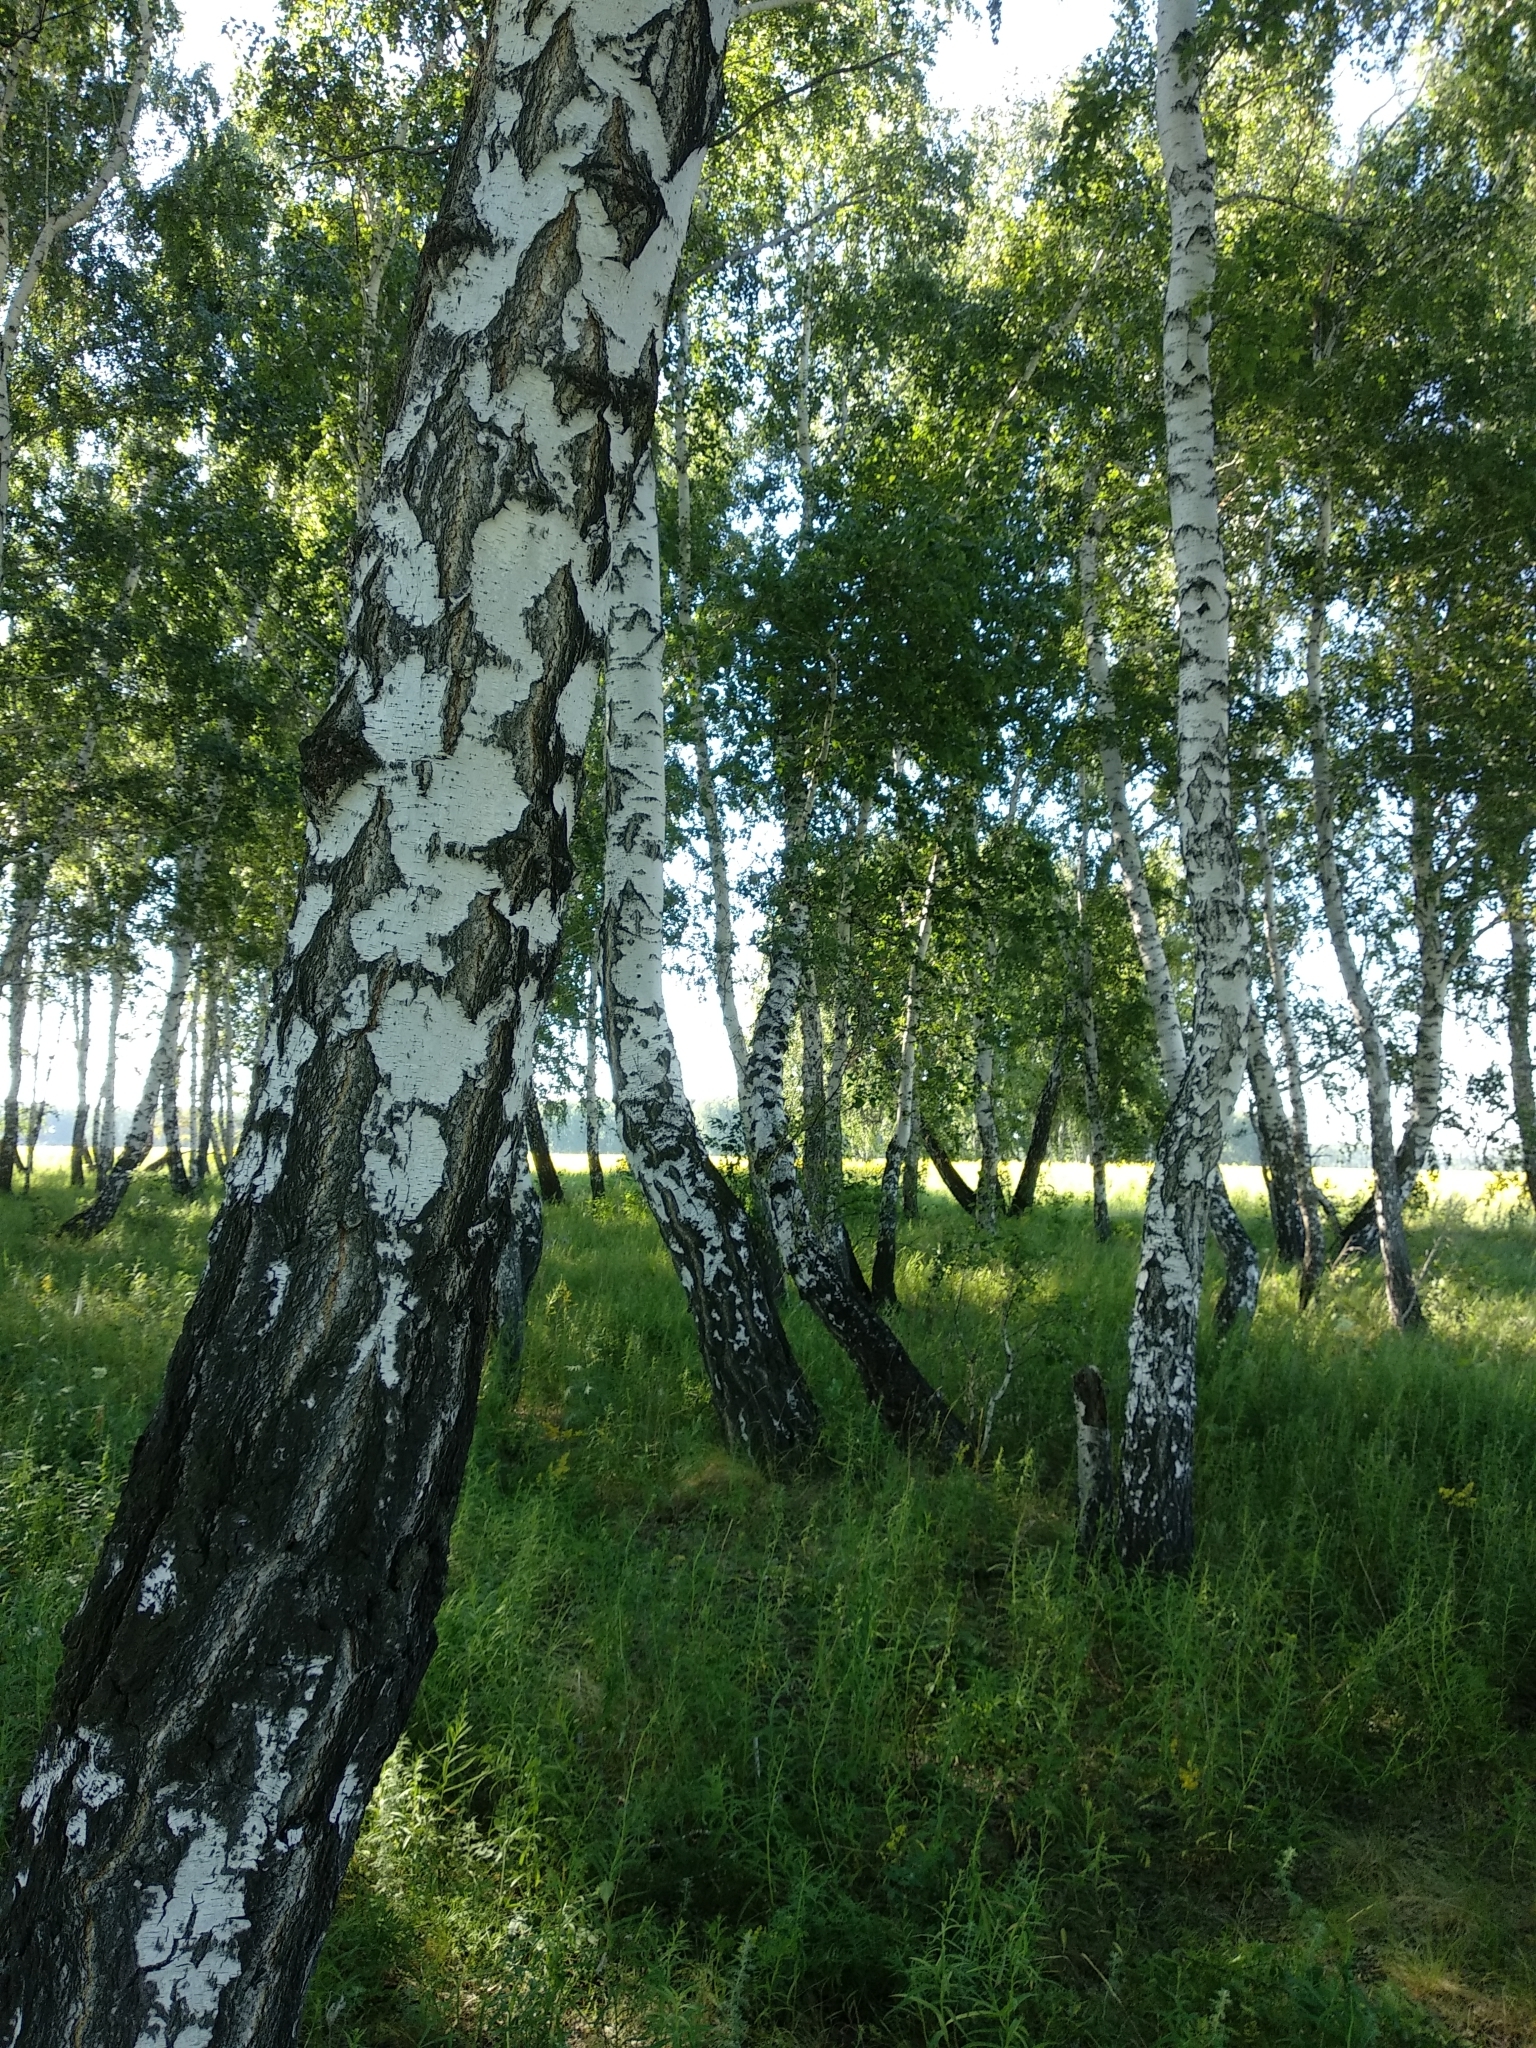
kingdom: Plantae
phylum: Tracheophyta
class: Magnoliopsida
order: Fagales
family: Betulaceae
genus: Betula
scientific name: Betula pendula
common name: Silver birch
